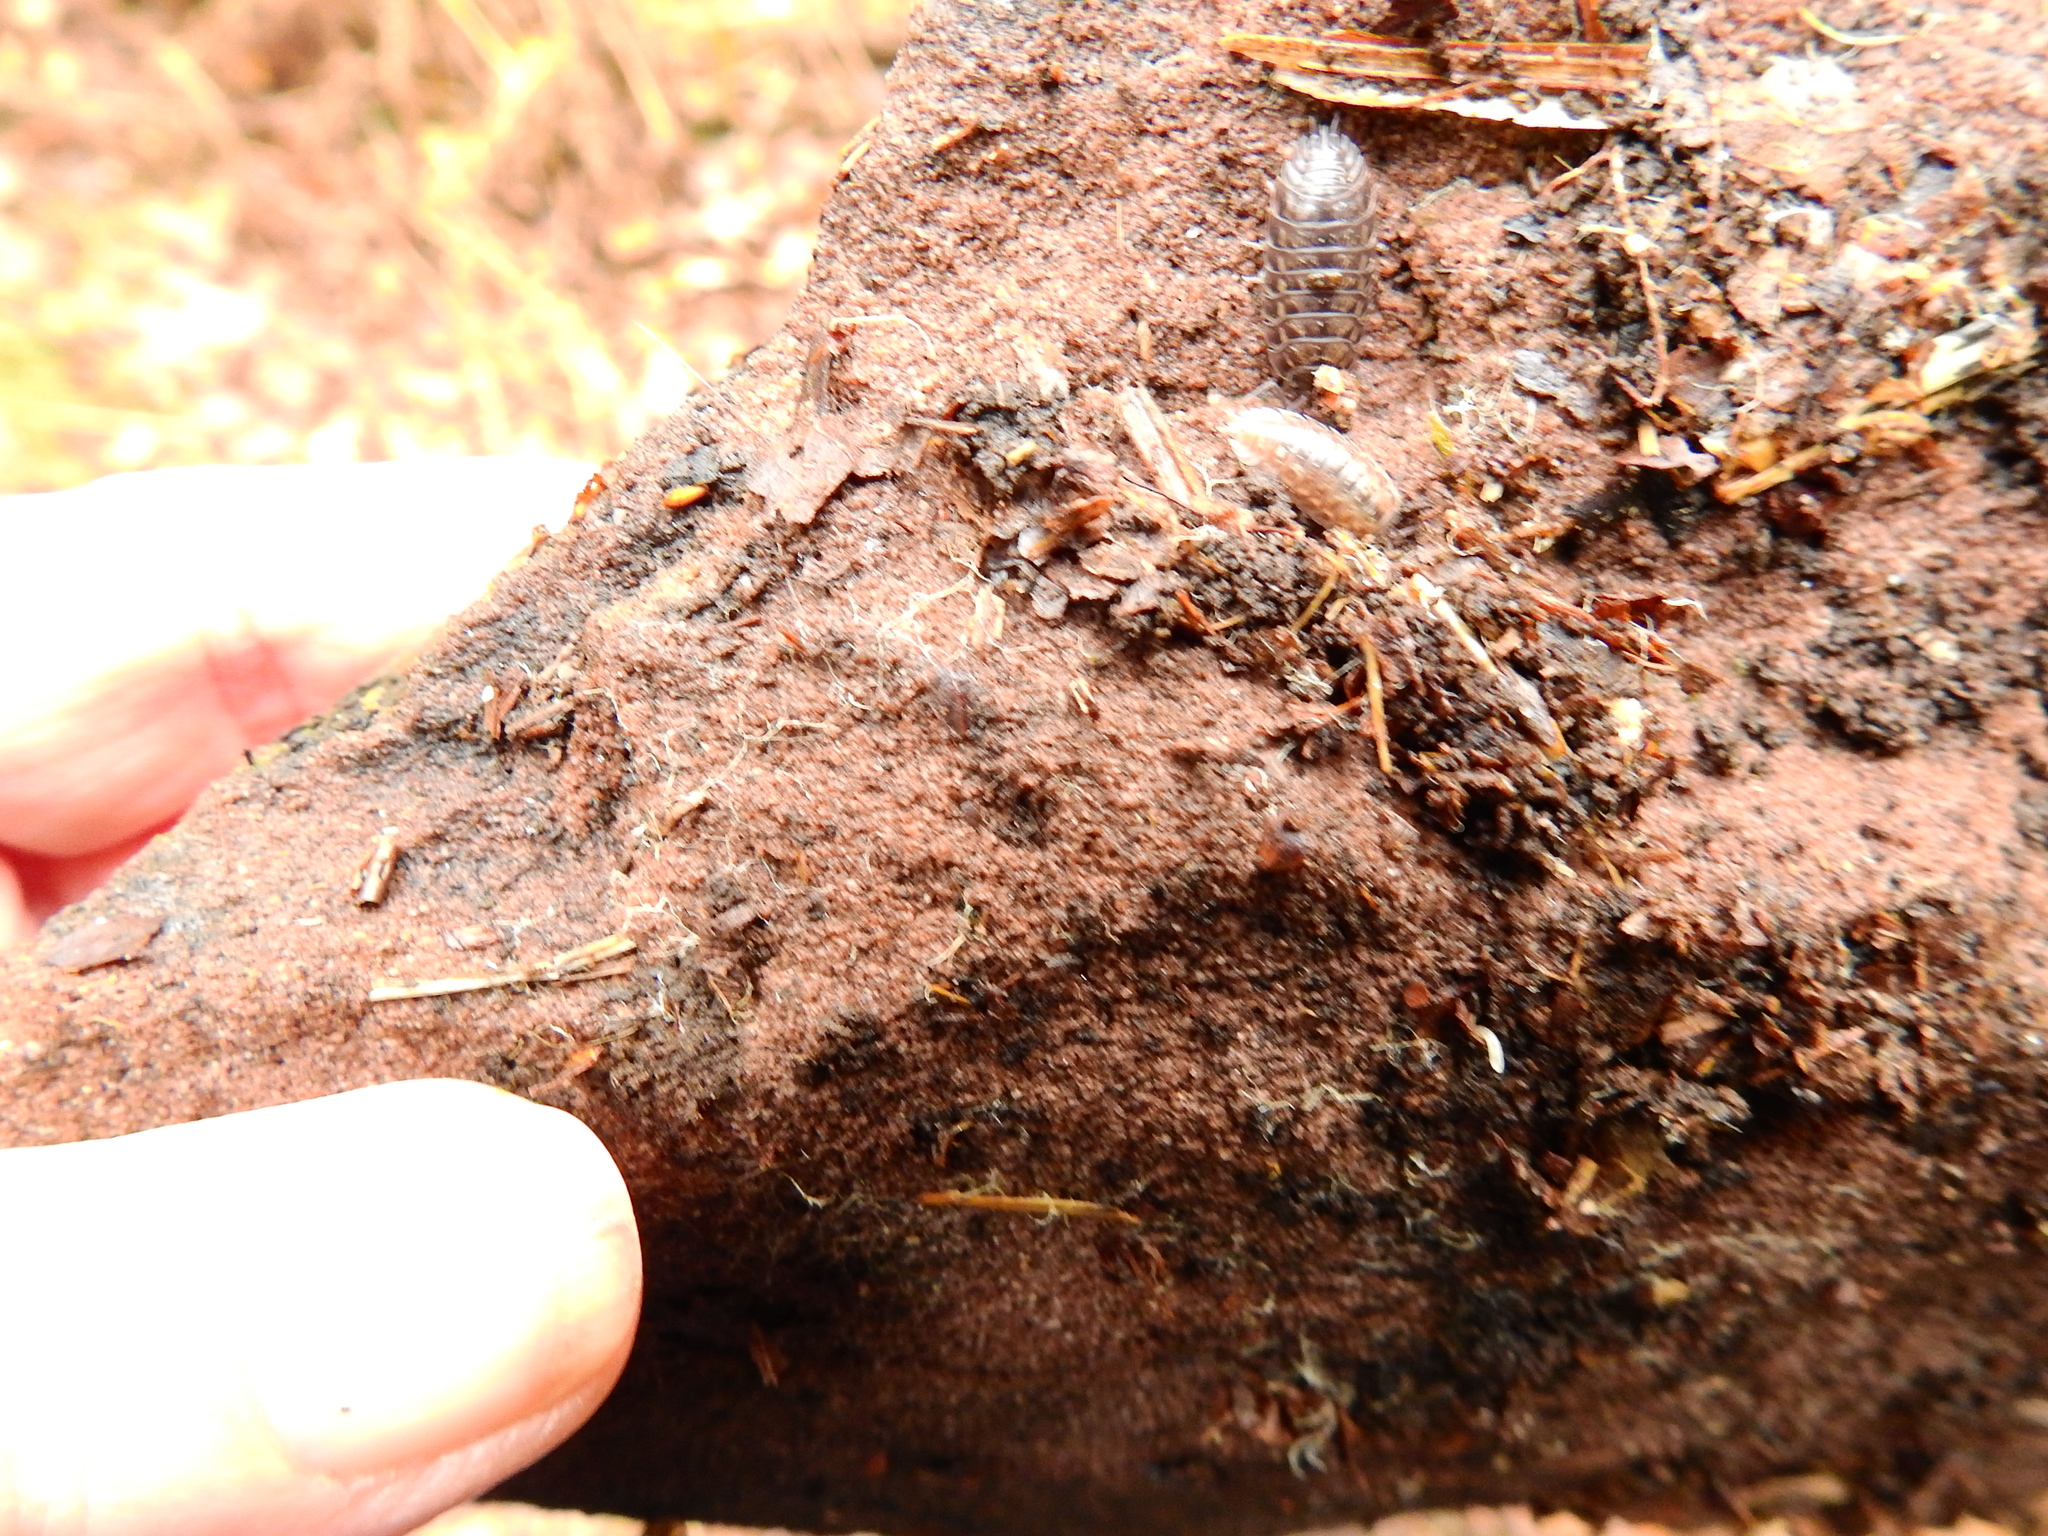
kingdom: Animalia
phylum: Arthropoda
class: Malacostraca
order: Isopoda
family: Oniscidae
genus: Oniscus
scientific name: Oniscus asellus
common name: Common shiny woodlouse
